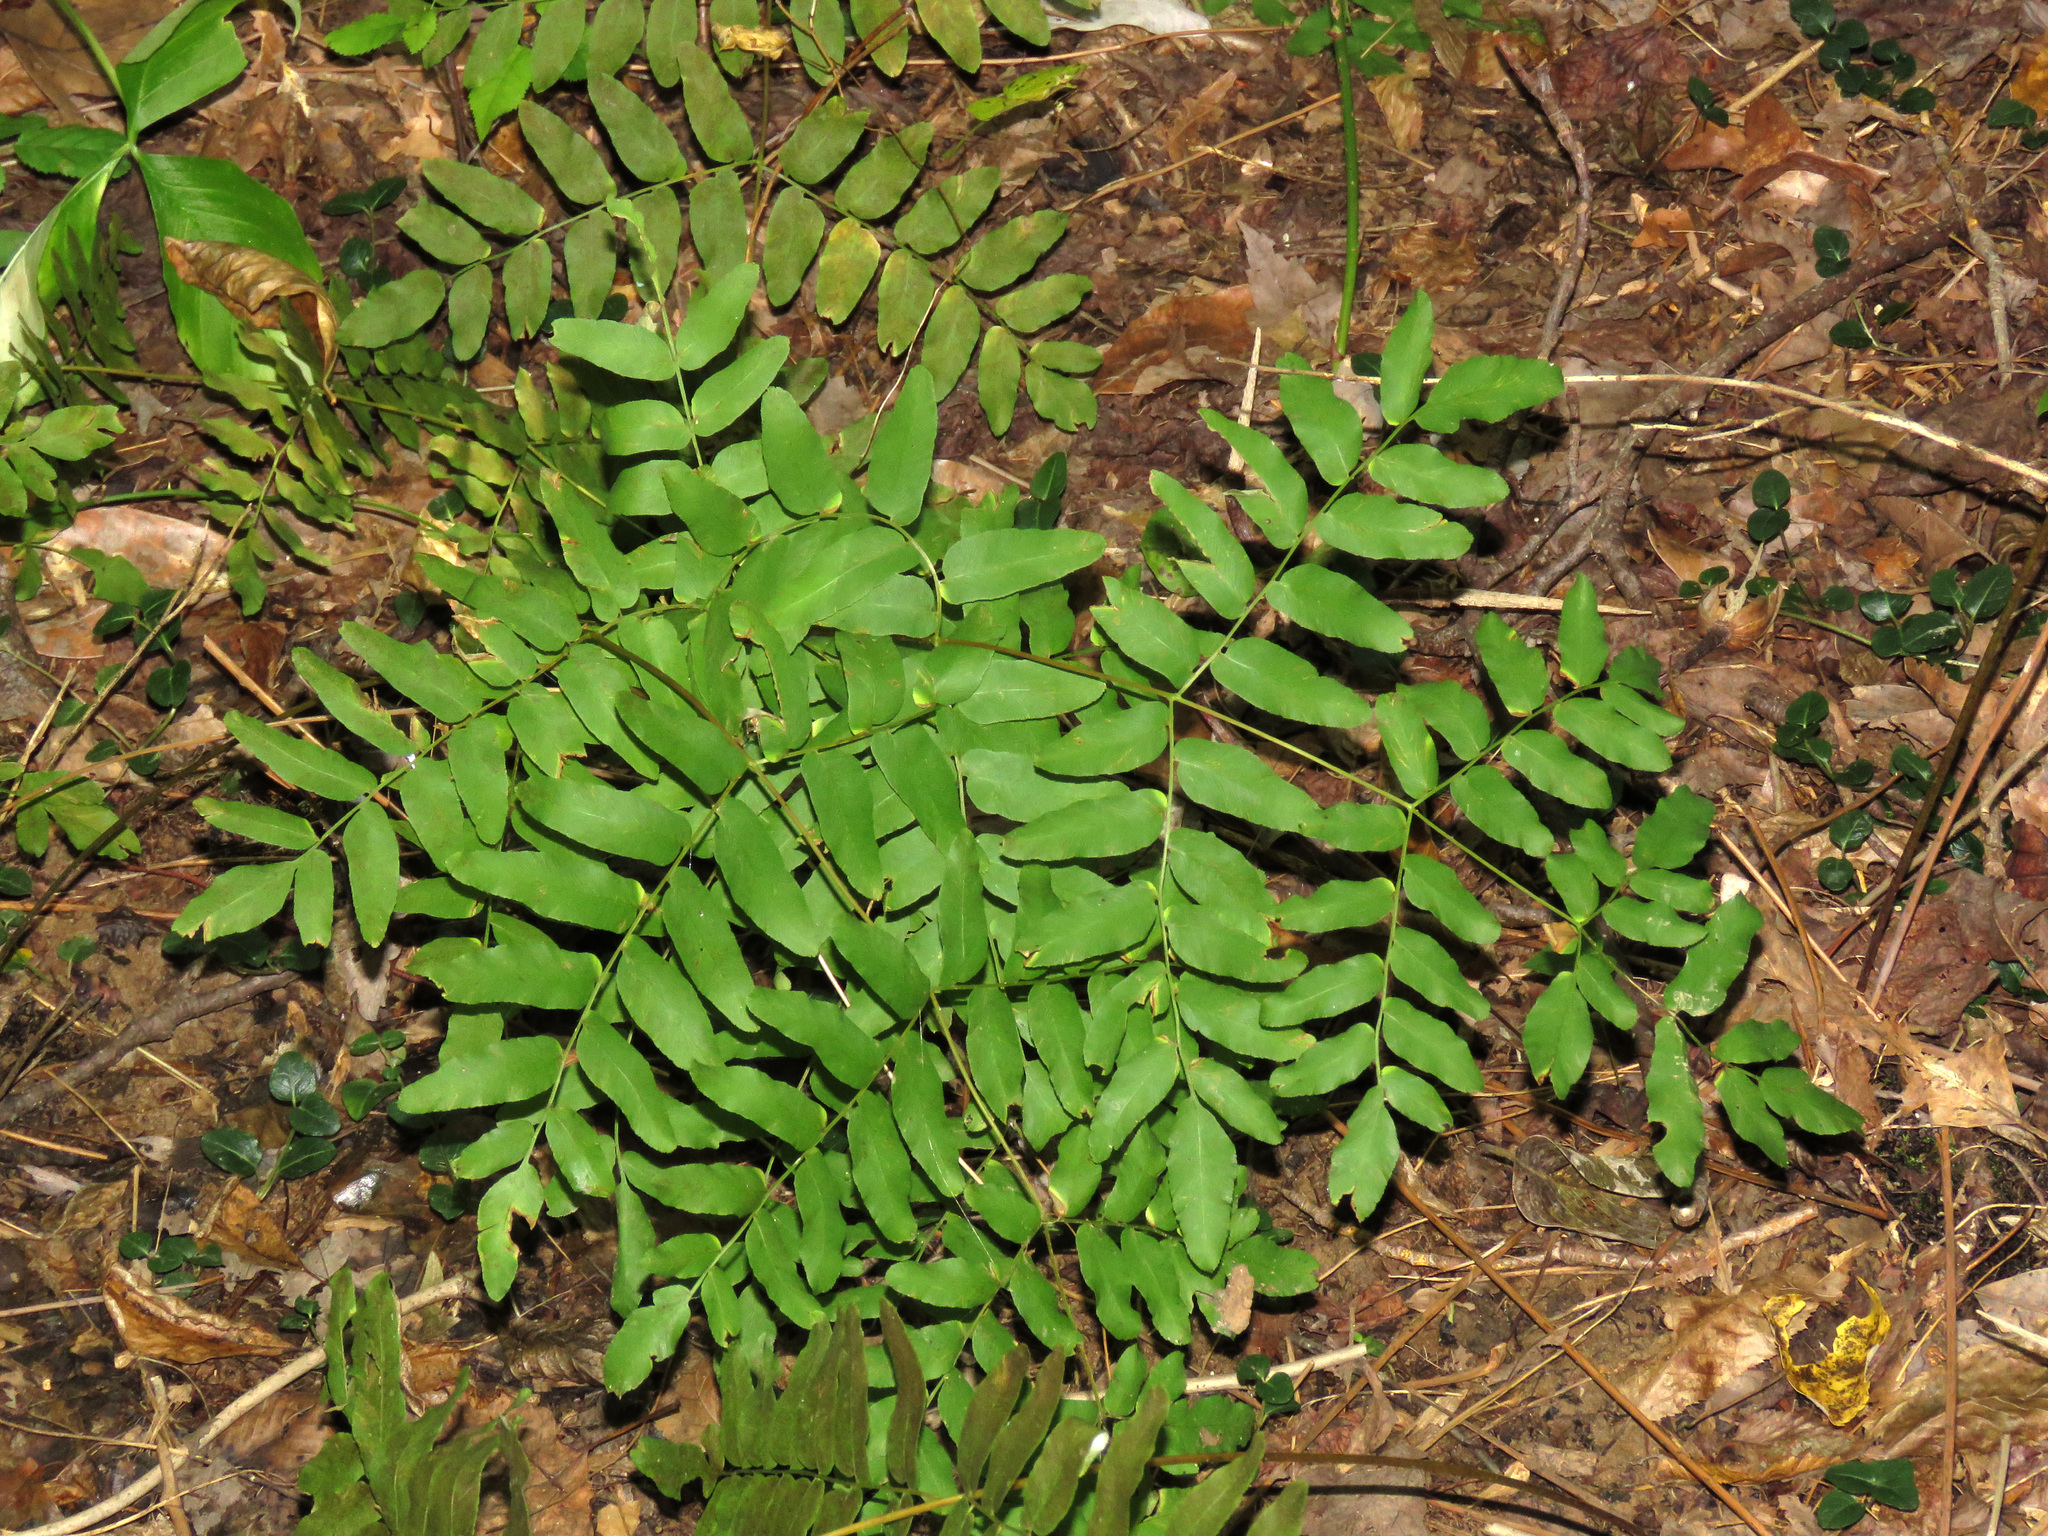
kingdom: Plantae
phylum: Tracheophyta
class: Polypodiopsida
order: Osmundales
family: Osmundaceae
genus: Osmunda
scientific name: Osmunda spectabilis
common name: American royal fern
